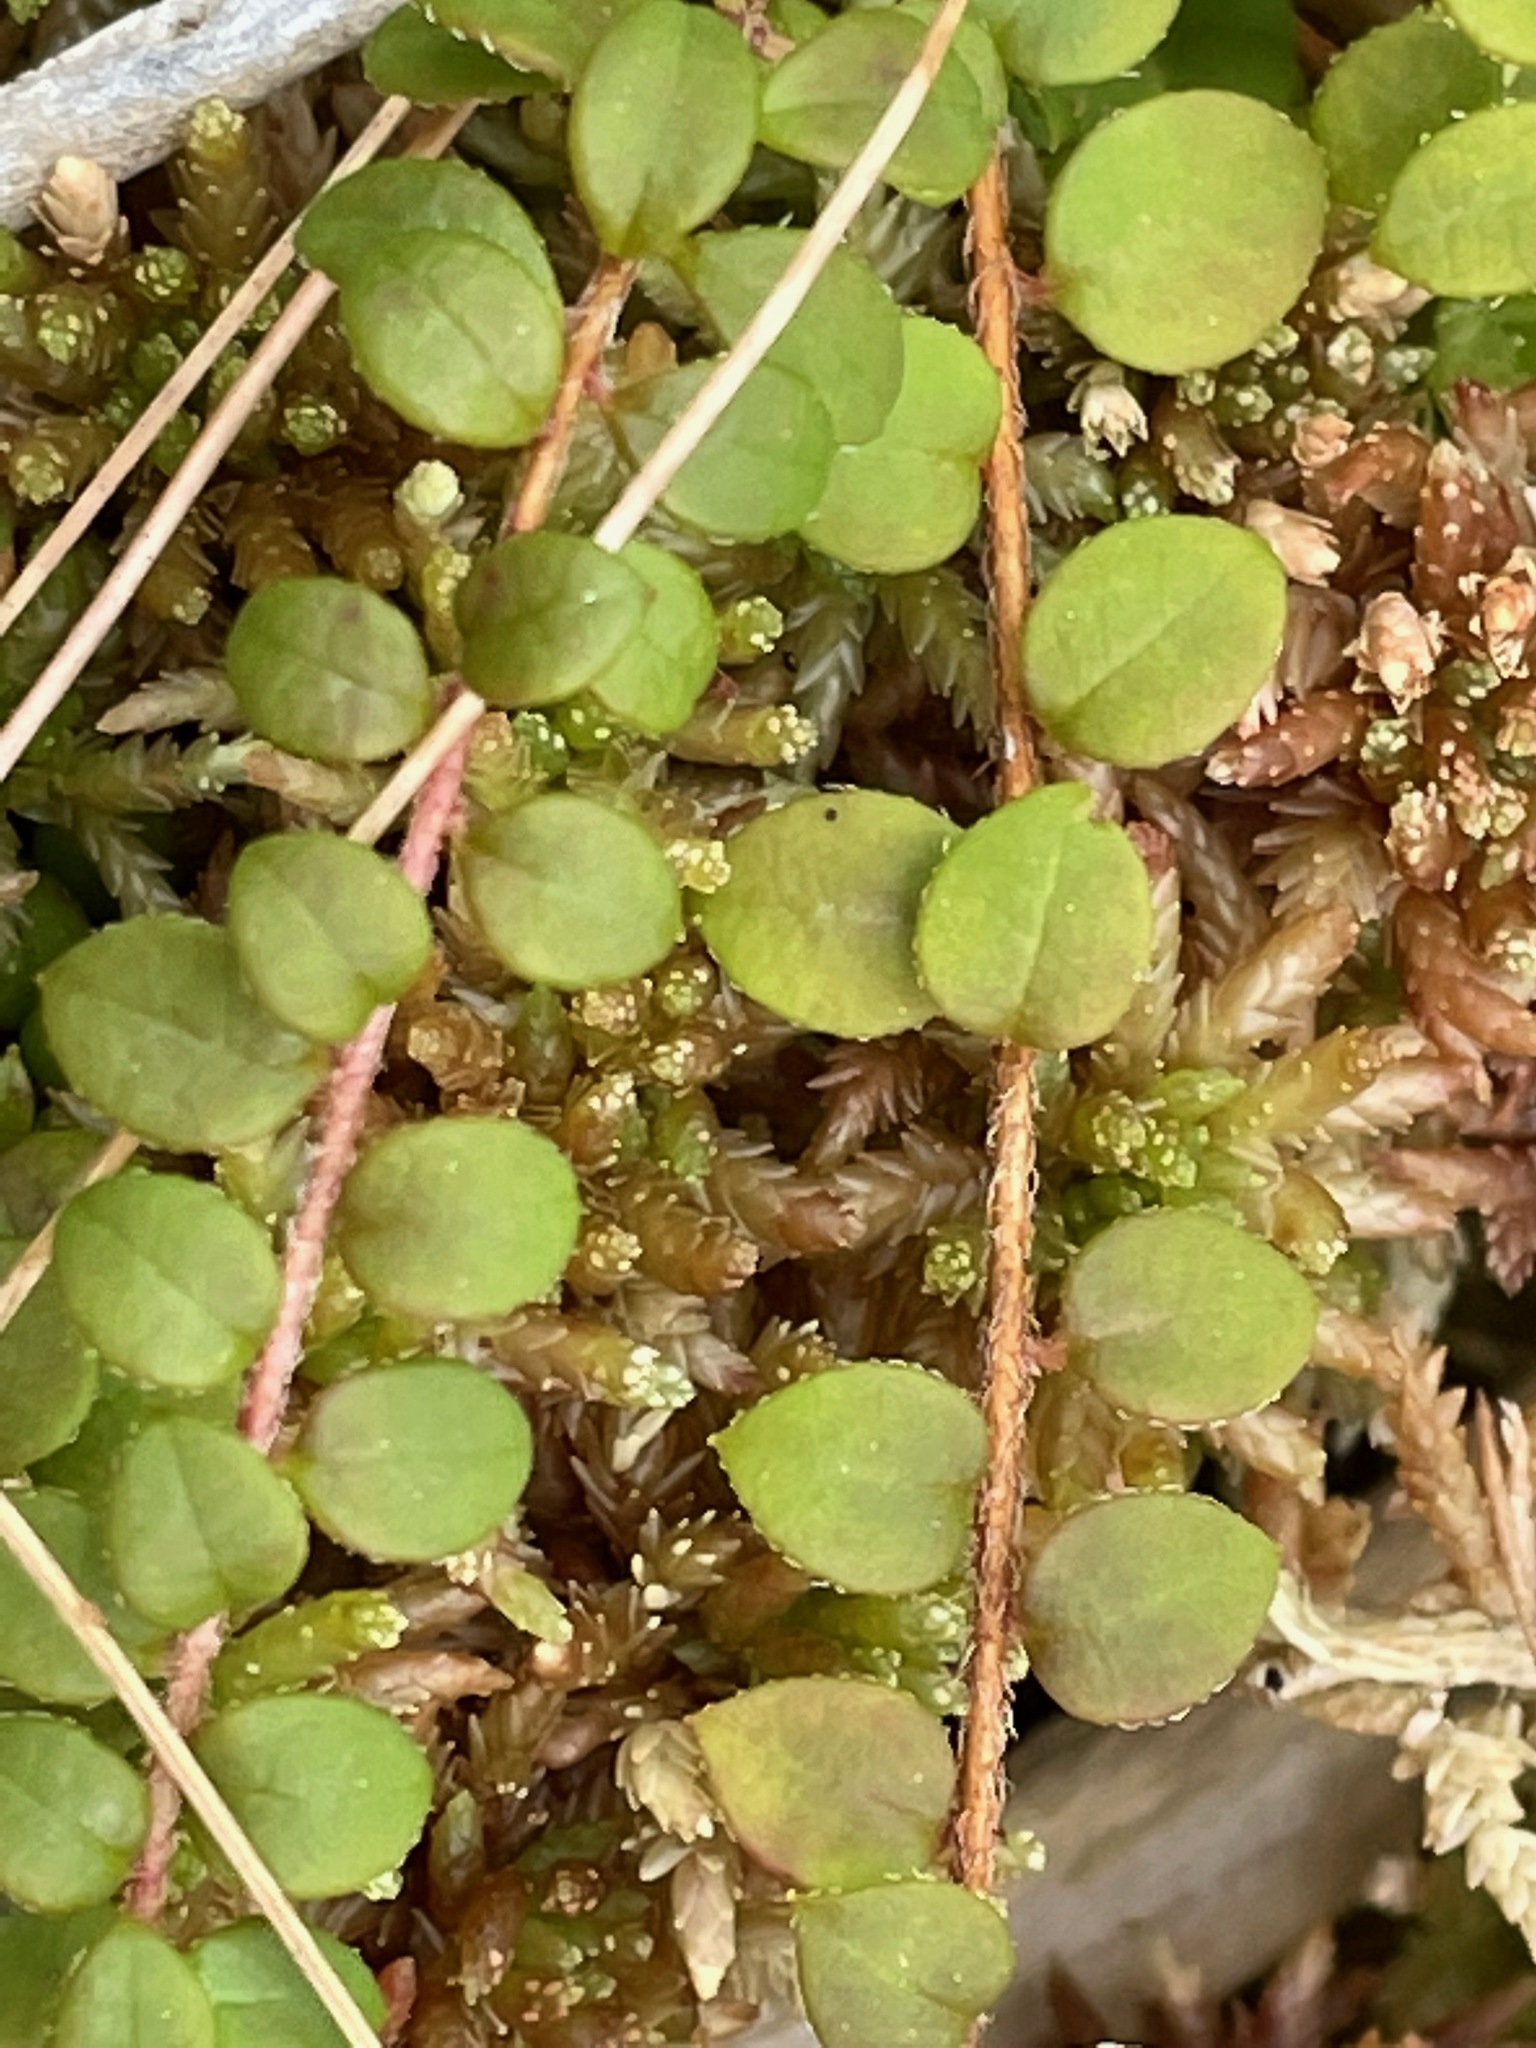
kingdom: Plantae
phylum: Tracheophyta
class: Magnoliopsida
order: Ericales
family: Ericaceae
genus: Gaultheria
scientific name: Gaultheria hispidula
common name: Cancer wintergreen
